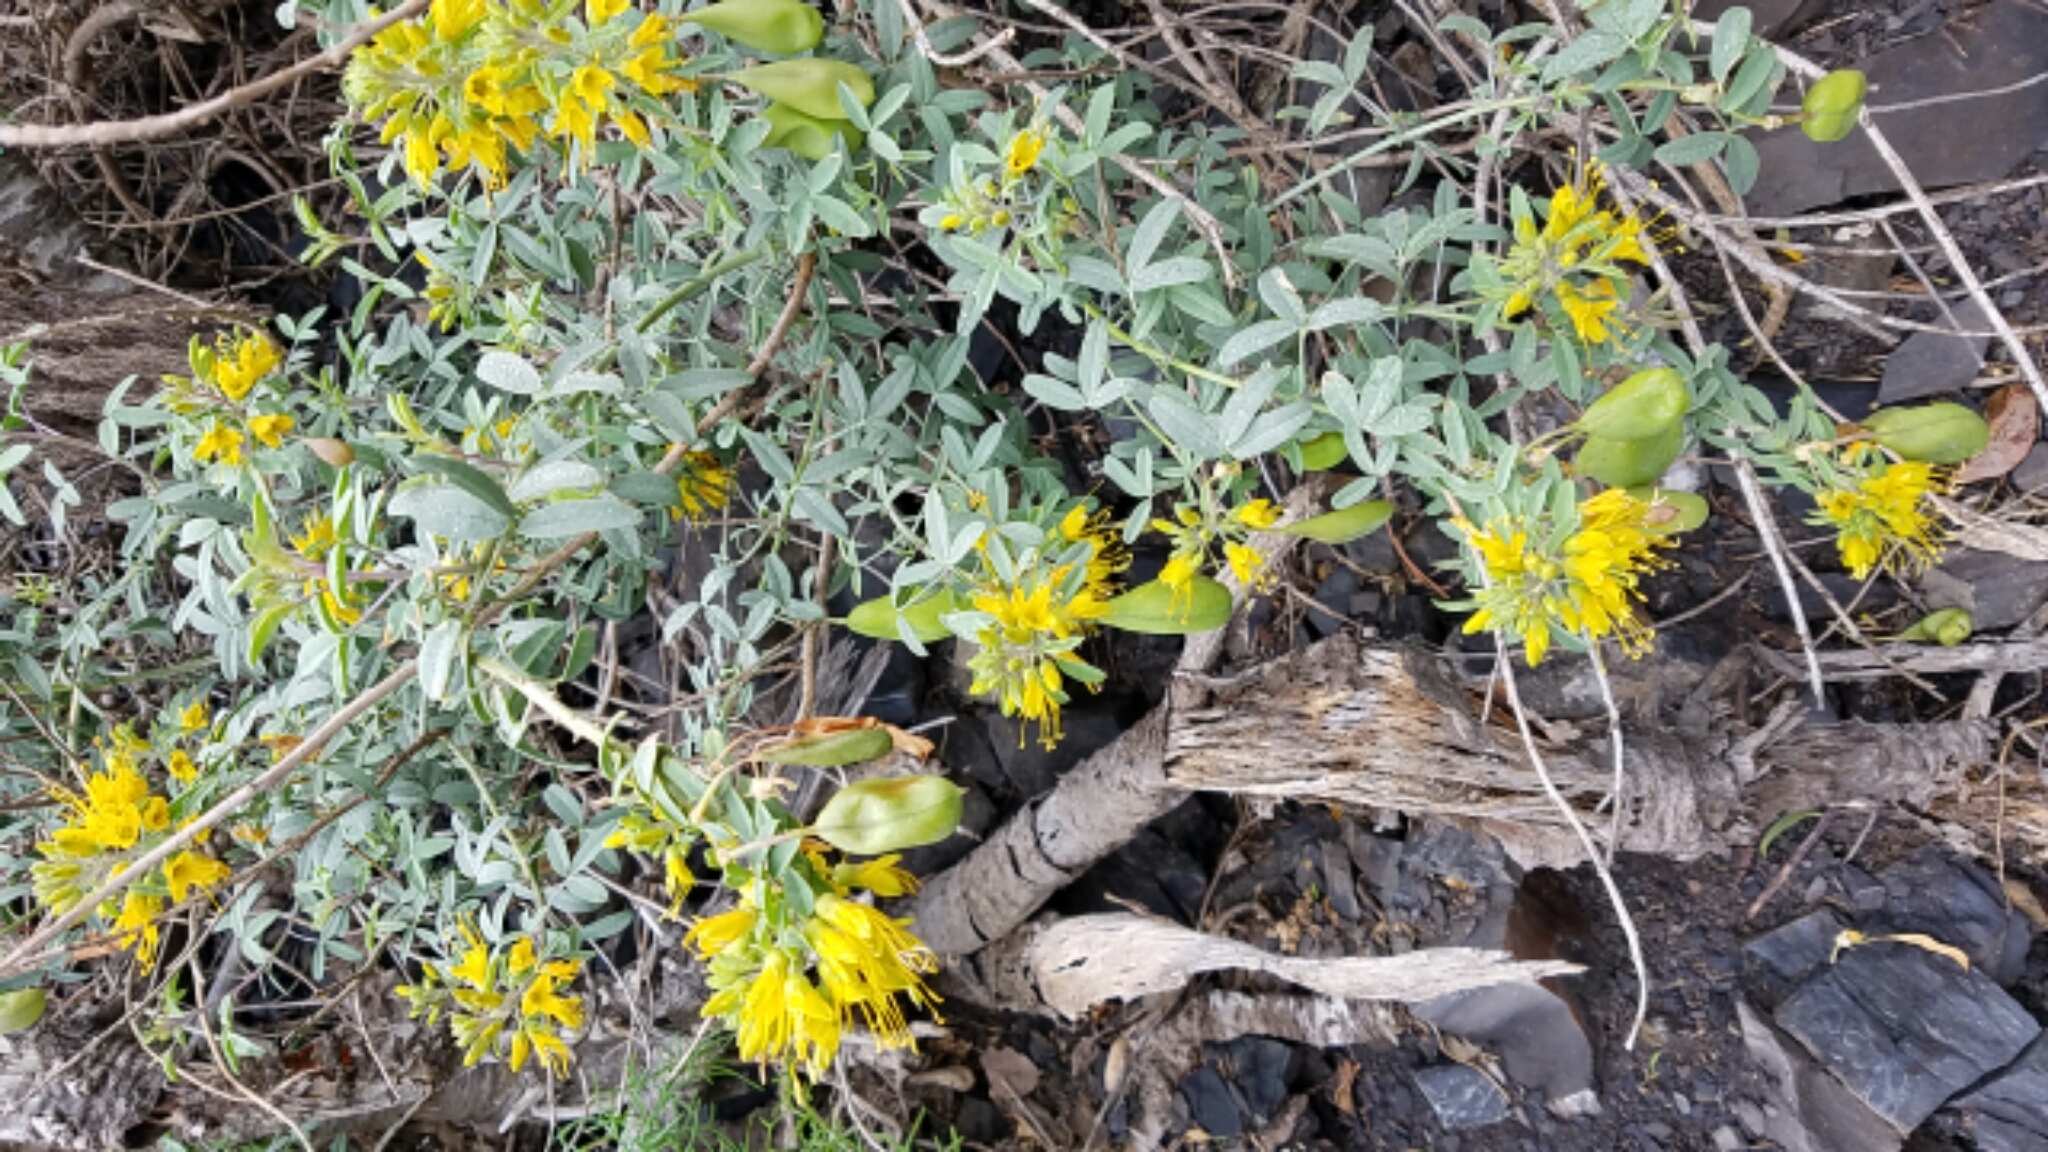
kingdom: Plantae
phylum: Tracheophyta
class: Magnoliopsida
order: Brassicales
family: Cleomaceae
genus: Cleomella
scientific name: Cleomella arborea
